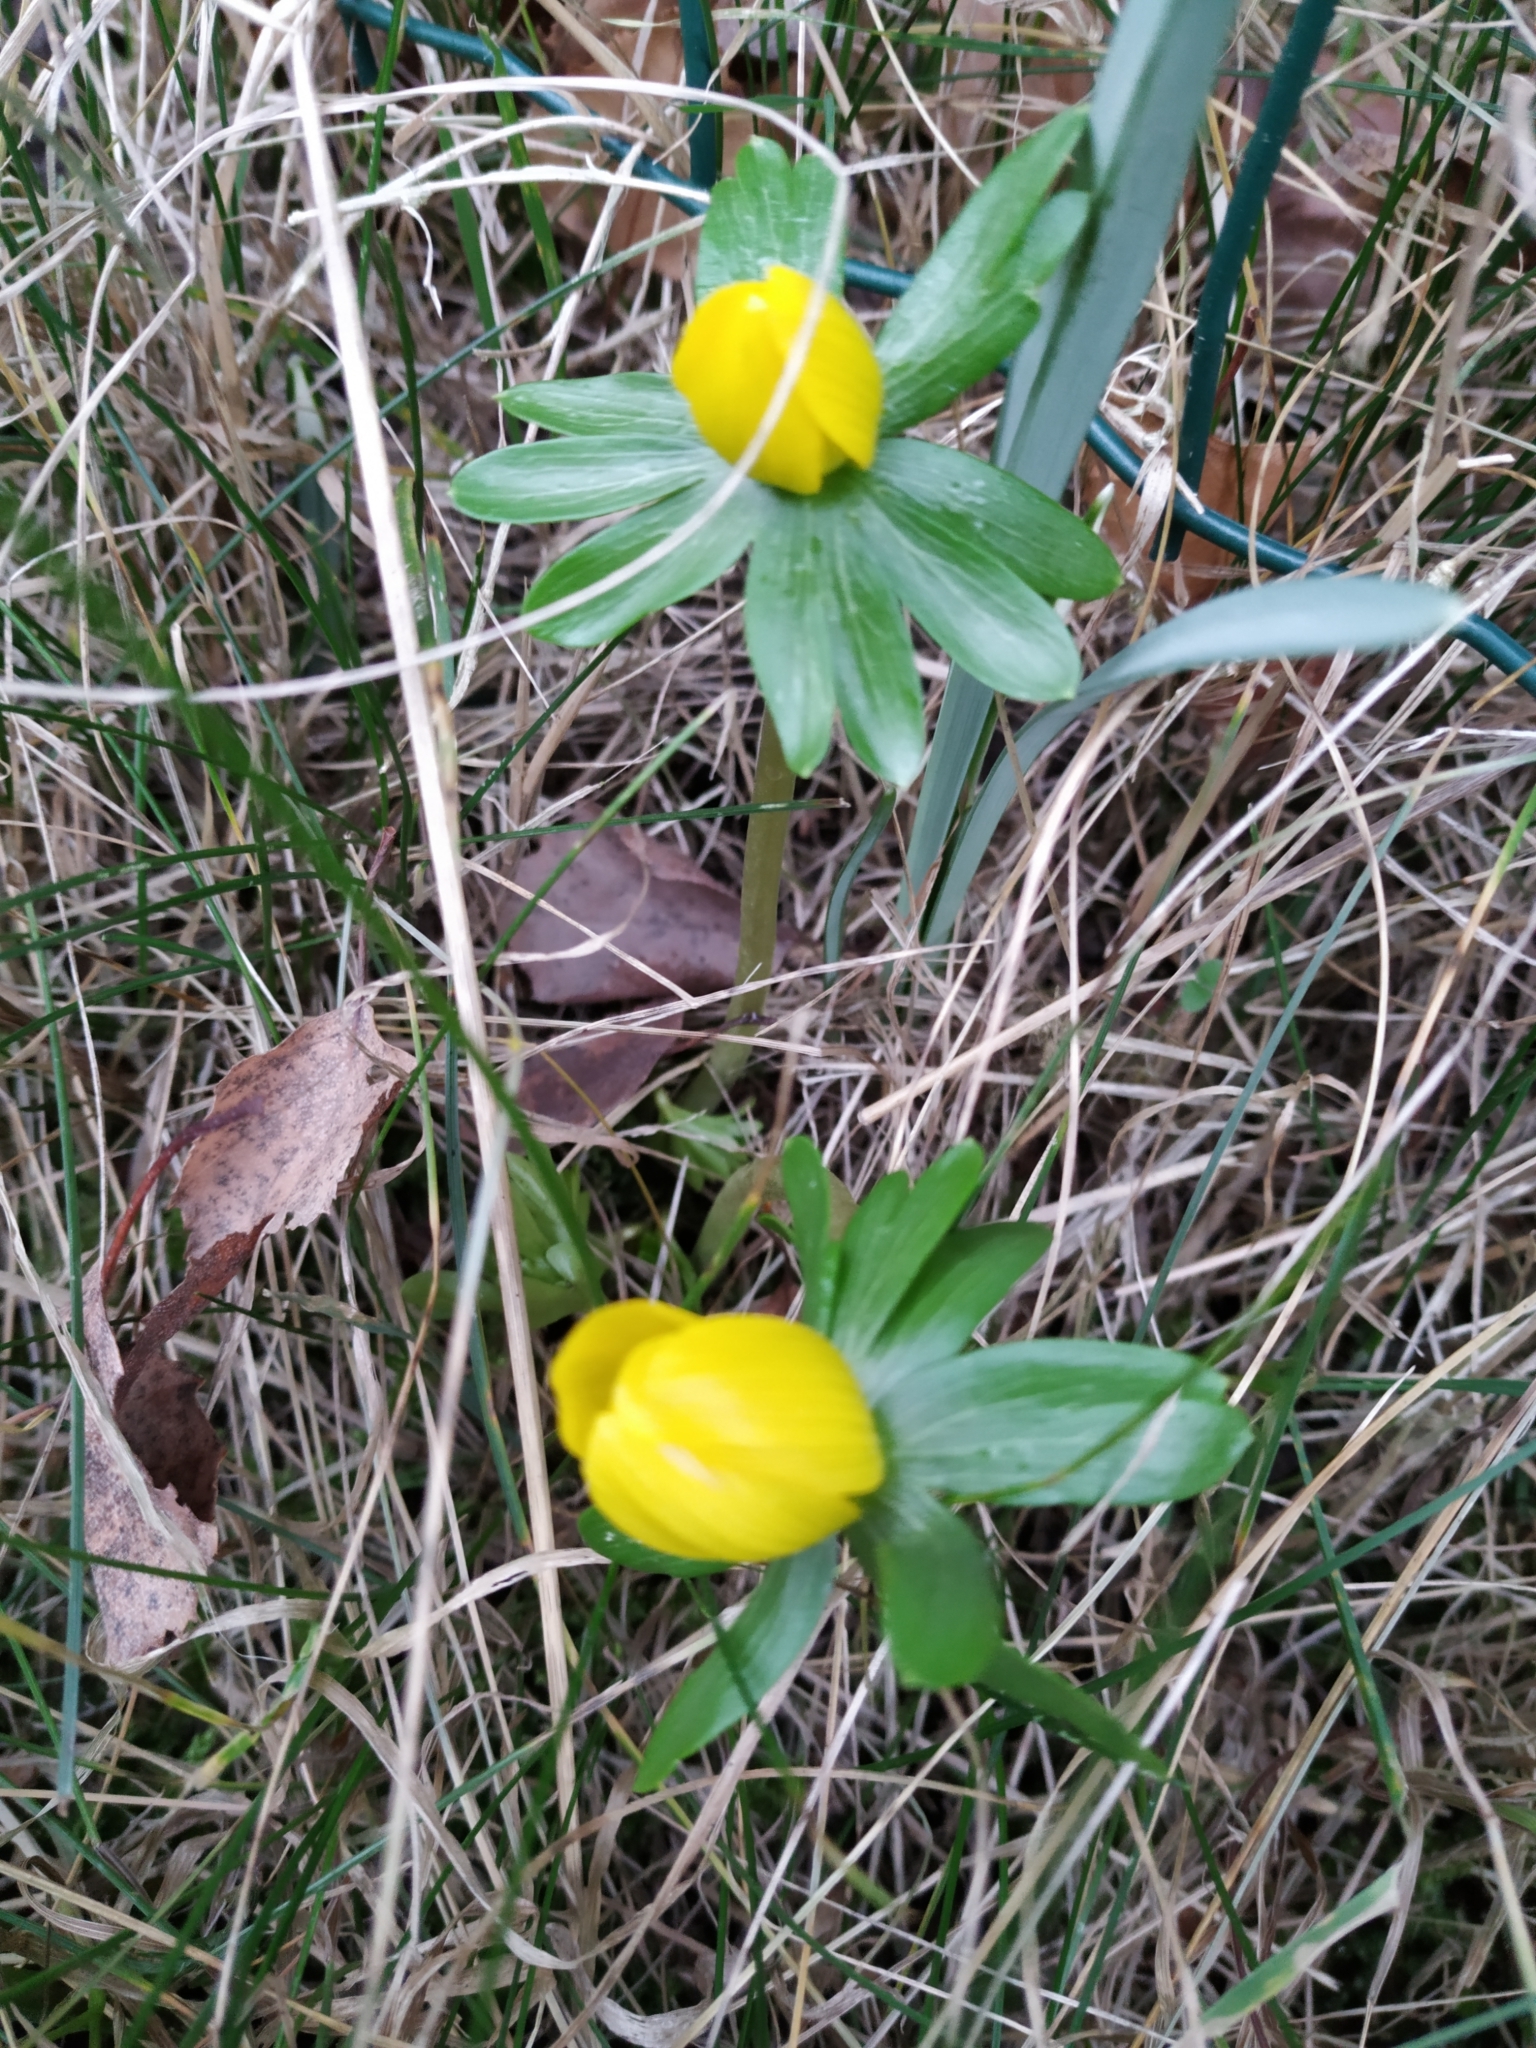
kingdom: Plantae
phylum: Tracheophyta
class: Magnoliopsida
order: Ranunculales
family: Ranunculaceae
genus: Eranthis
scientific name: Eranthis hyemalis
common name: Winter aconite
